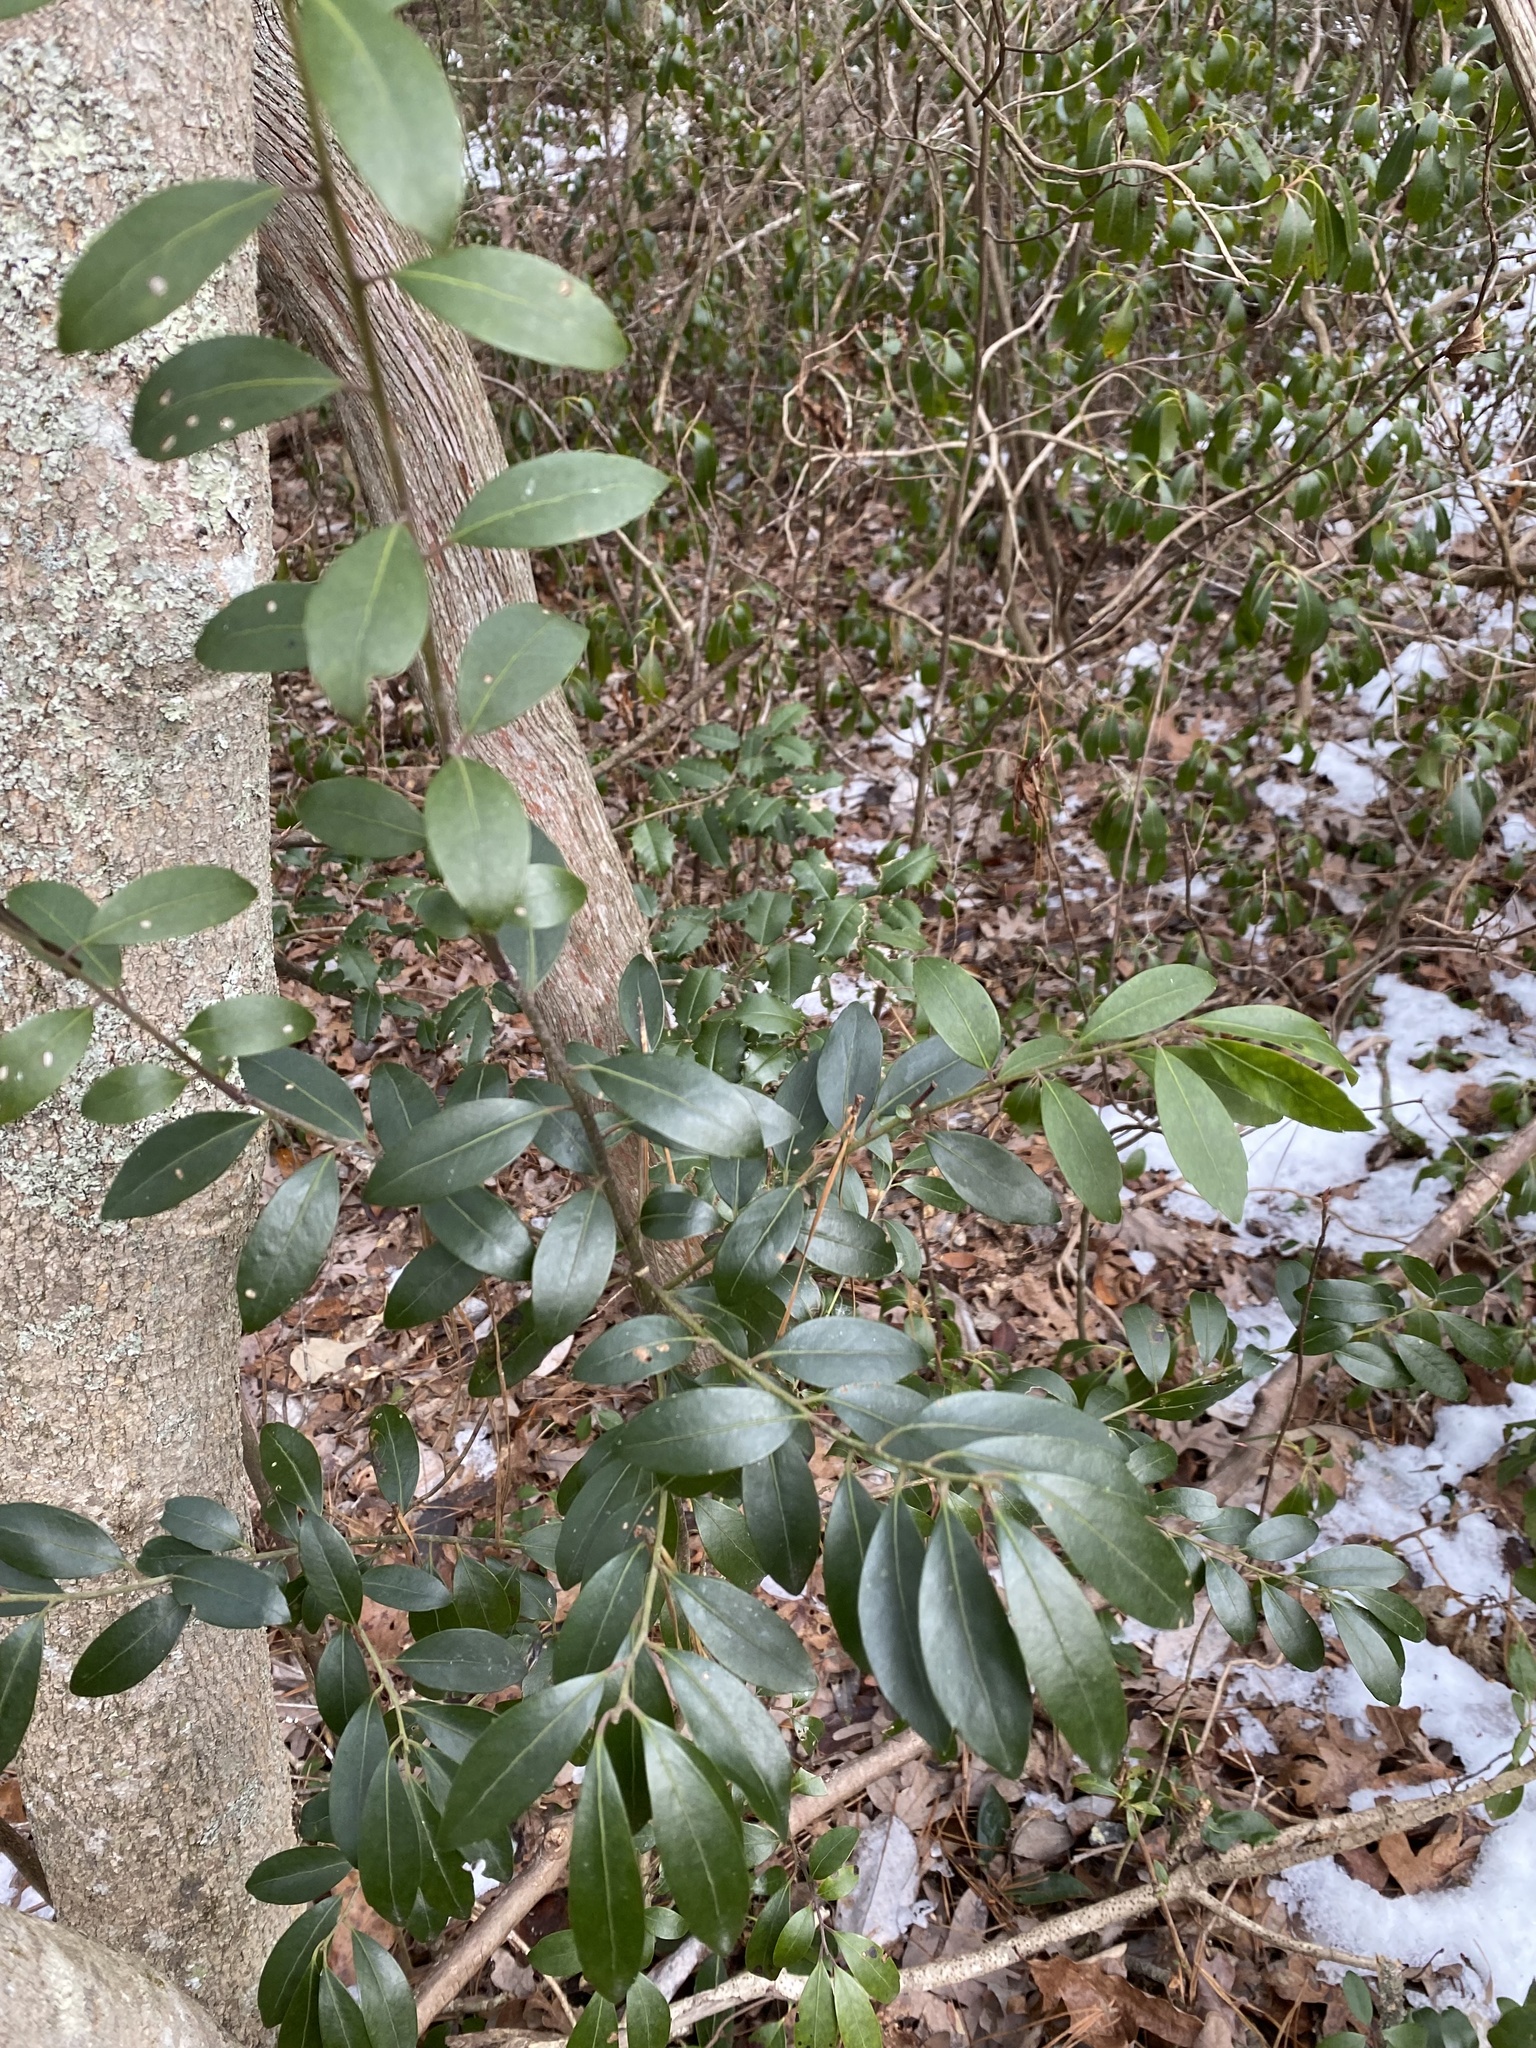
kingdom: Plantae
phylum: Tracheophyta
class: Magnoliopsida
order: Aquifoliales
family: Aquifoliaceae
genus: Ilex
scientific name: Ilex glabra
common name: Bitter gallberry
